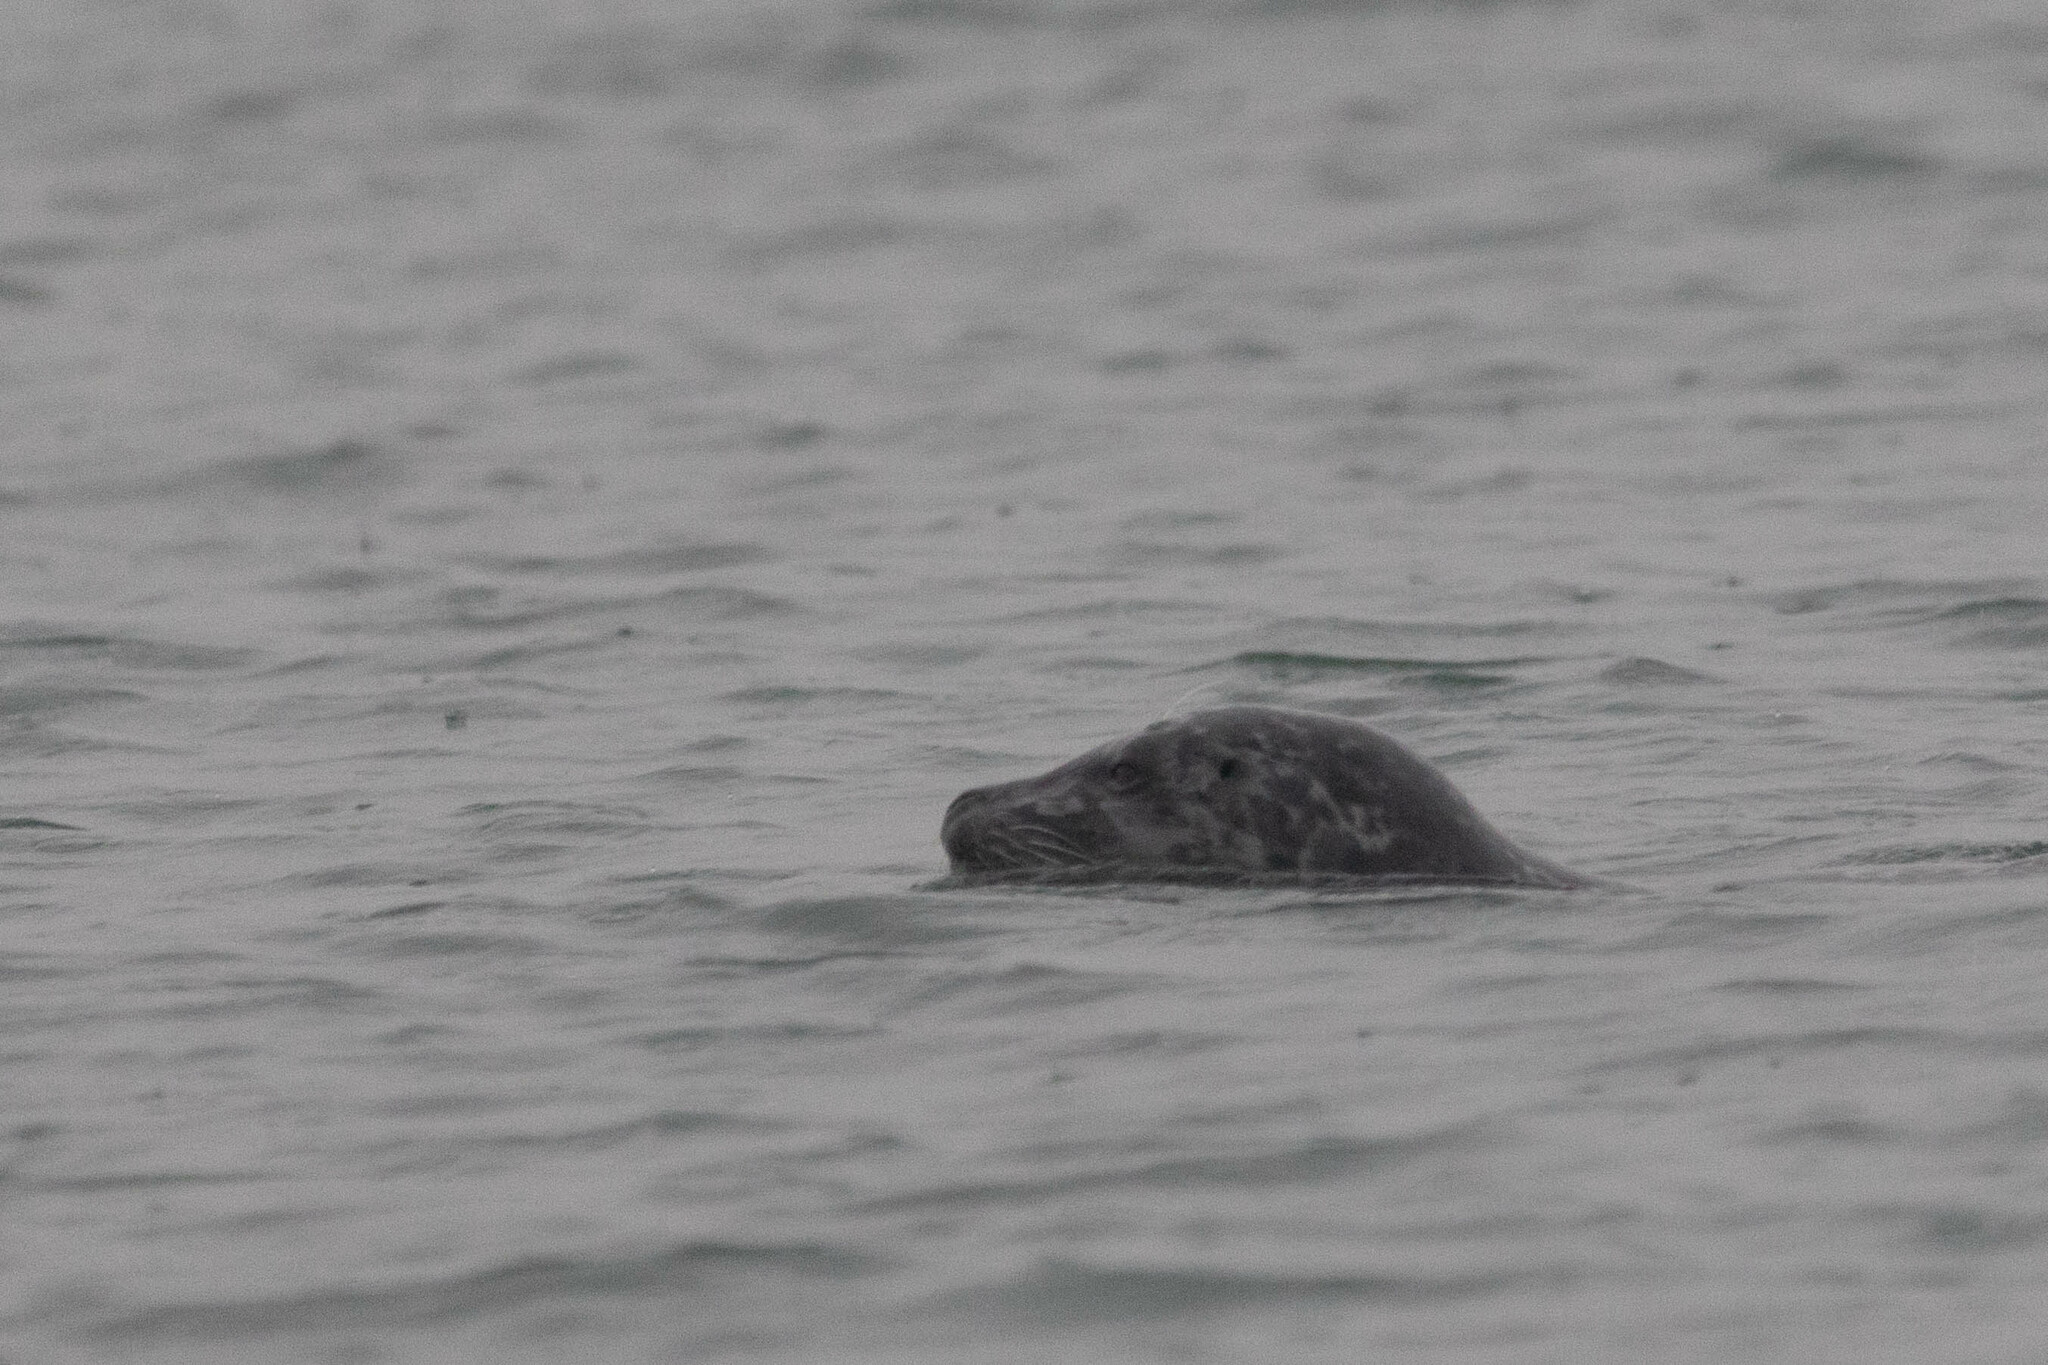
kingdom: Animalia
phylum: Chordata
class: Mammalia
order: Carnivora
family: Phocidae
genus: Phoca
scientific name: Phoca vitulina
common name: Harbor seal
